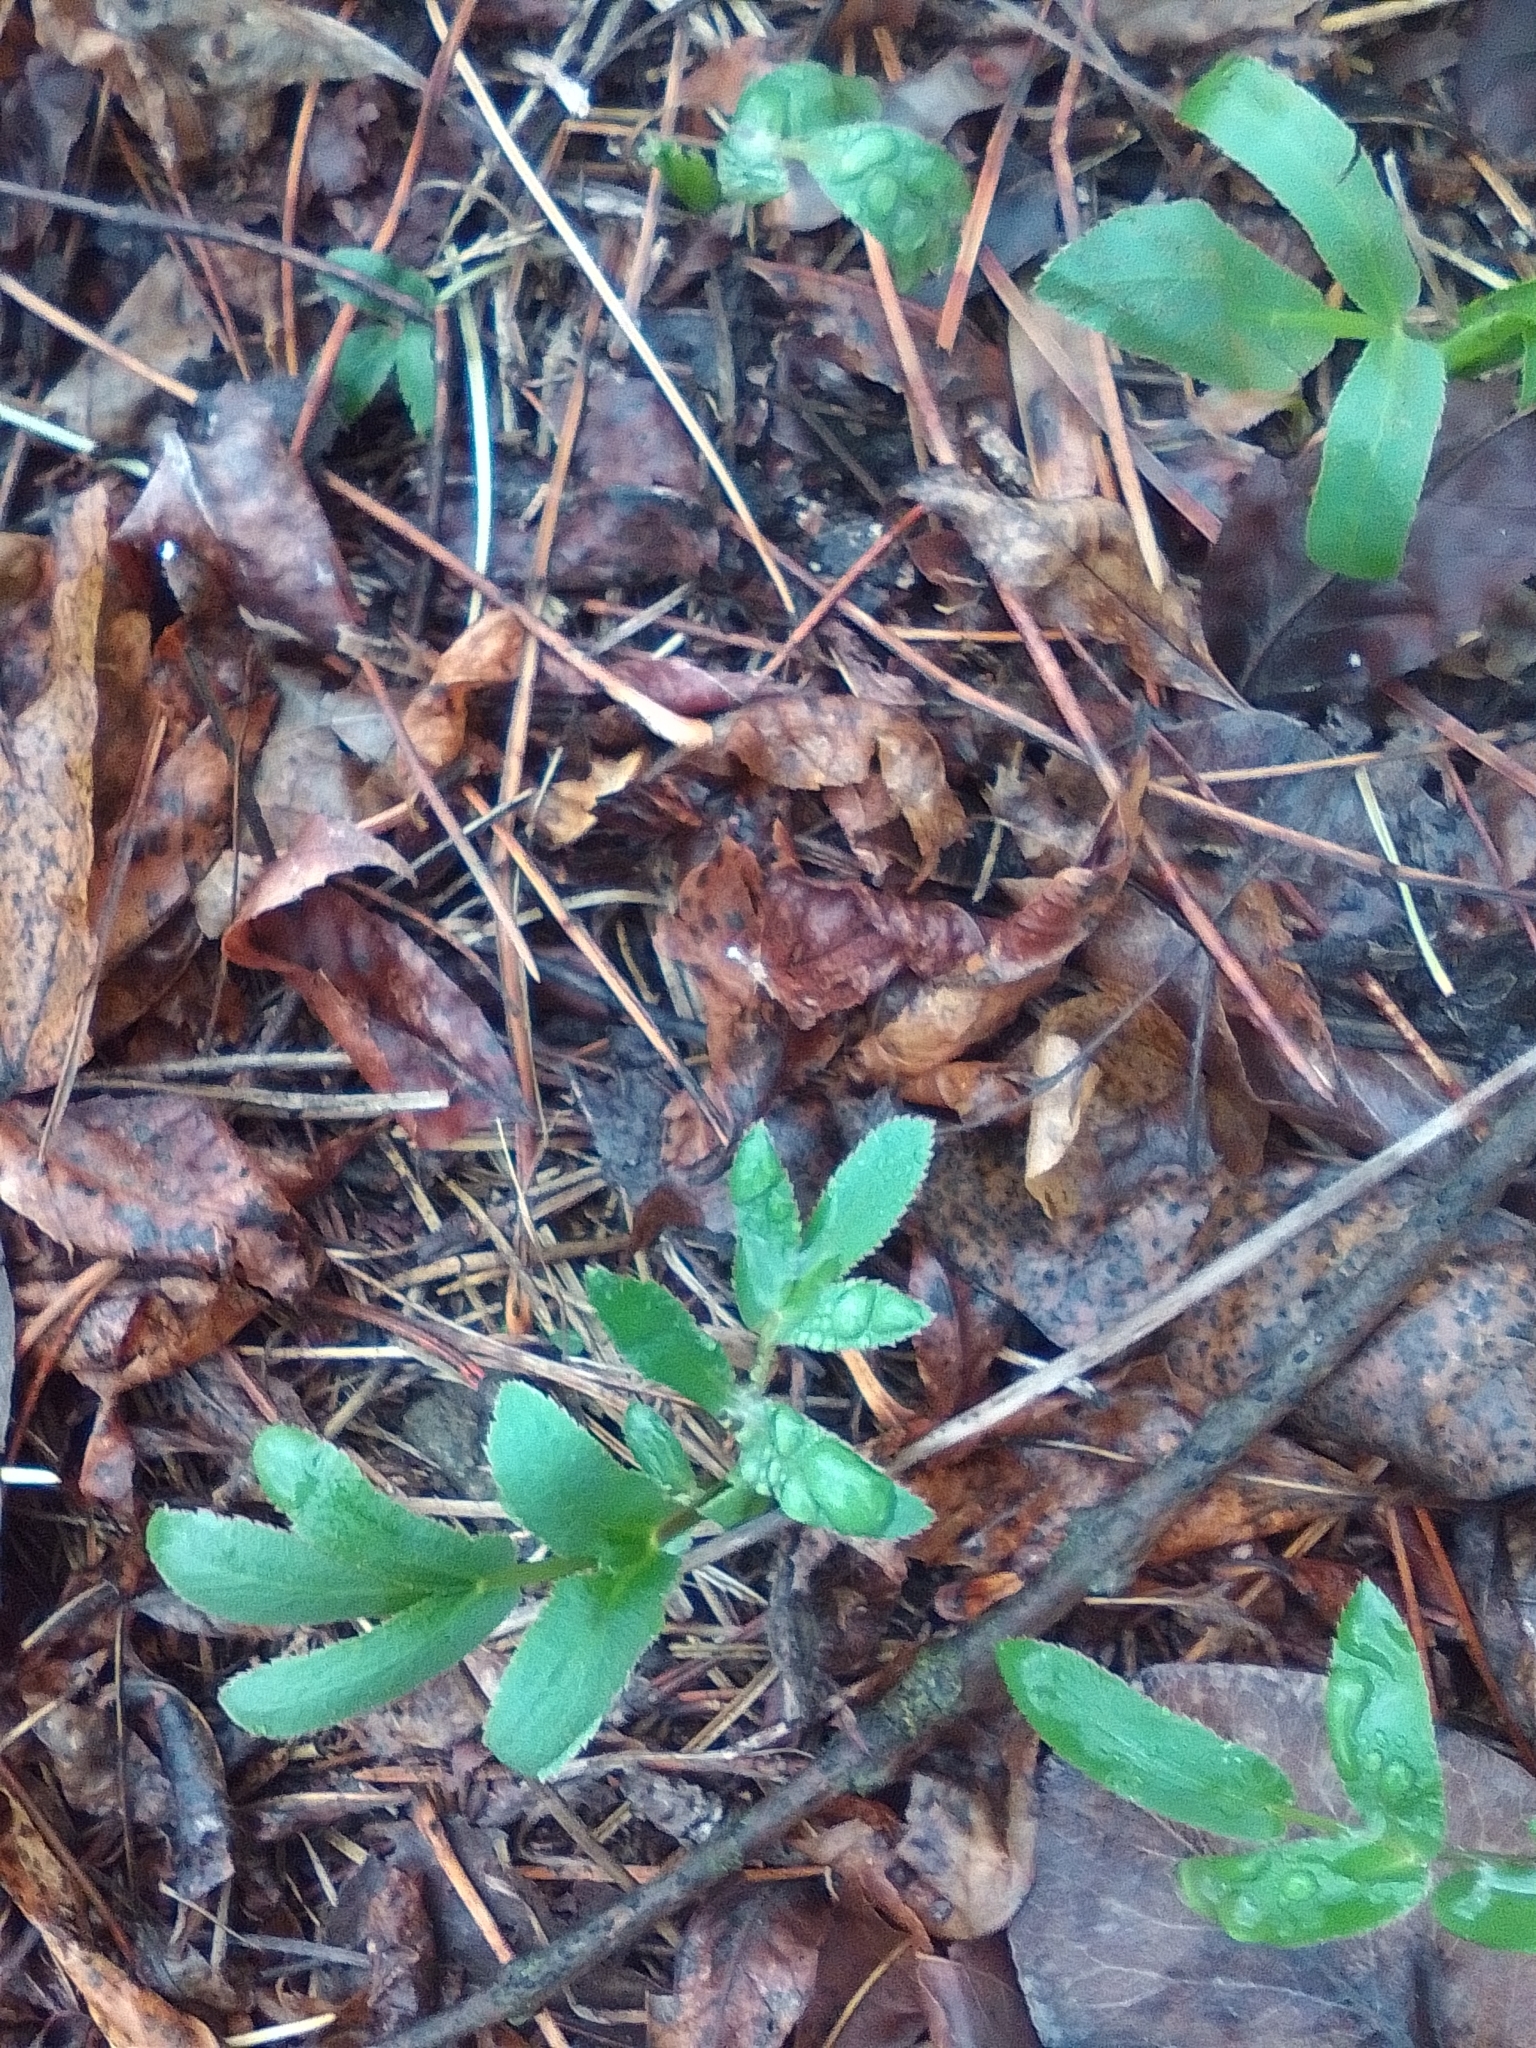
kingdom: Plantae
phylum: Tracheophyta
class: Magnoliopsida
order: Apiales
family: Apiaceae
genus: Falcaria
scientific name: Falcaria vulgaris
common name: Longleaf
